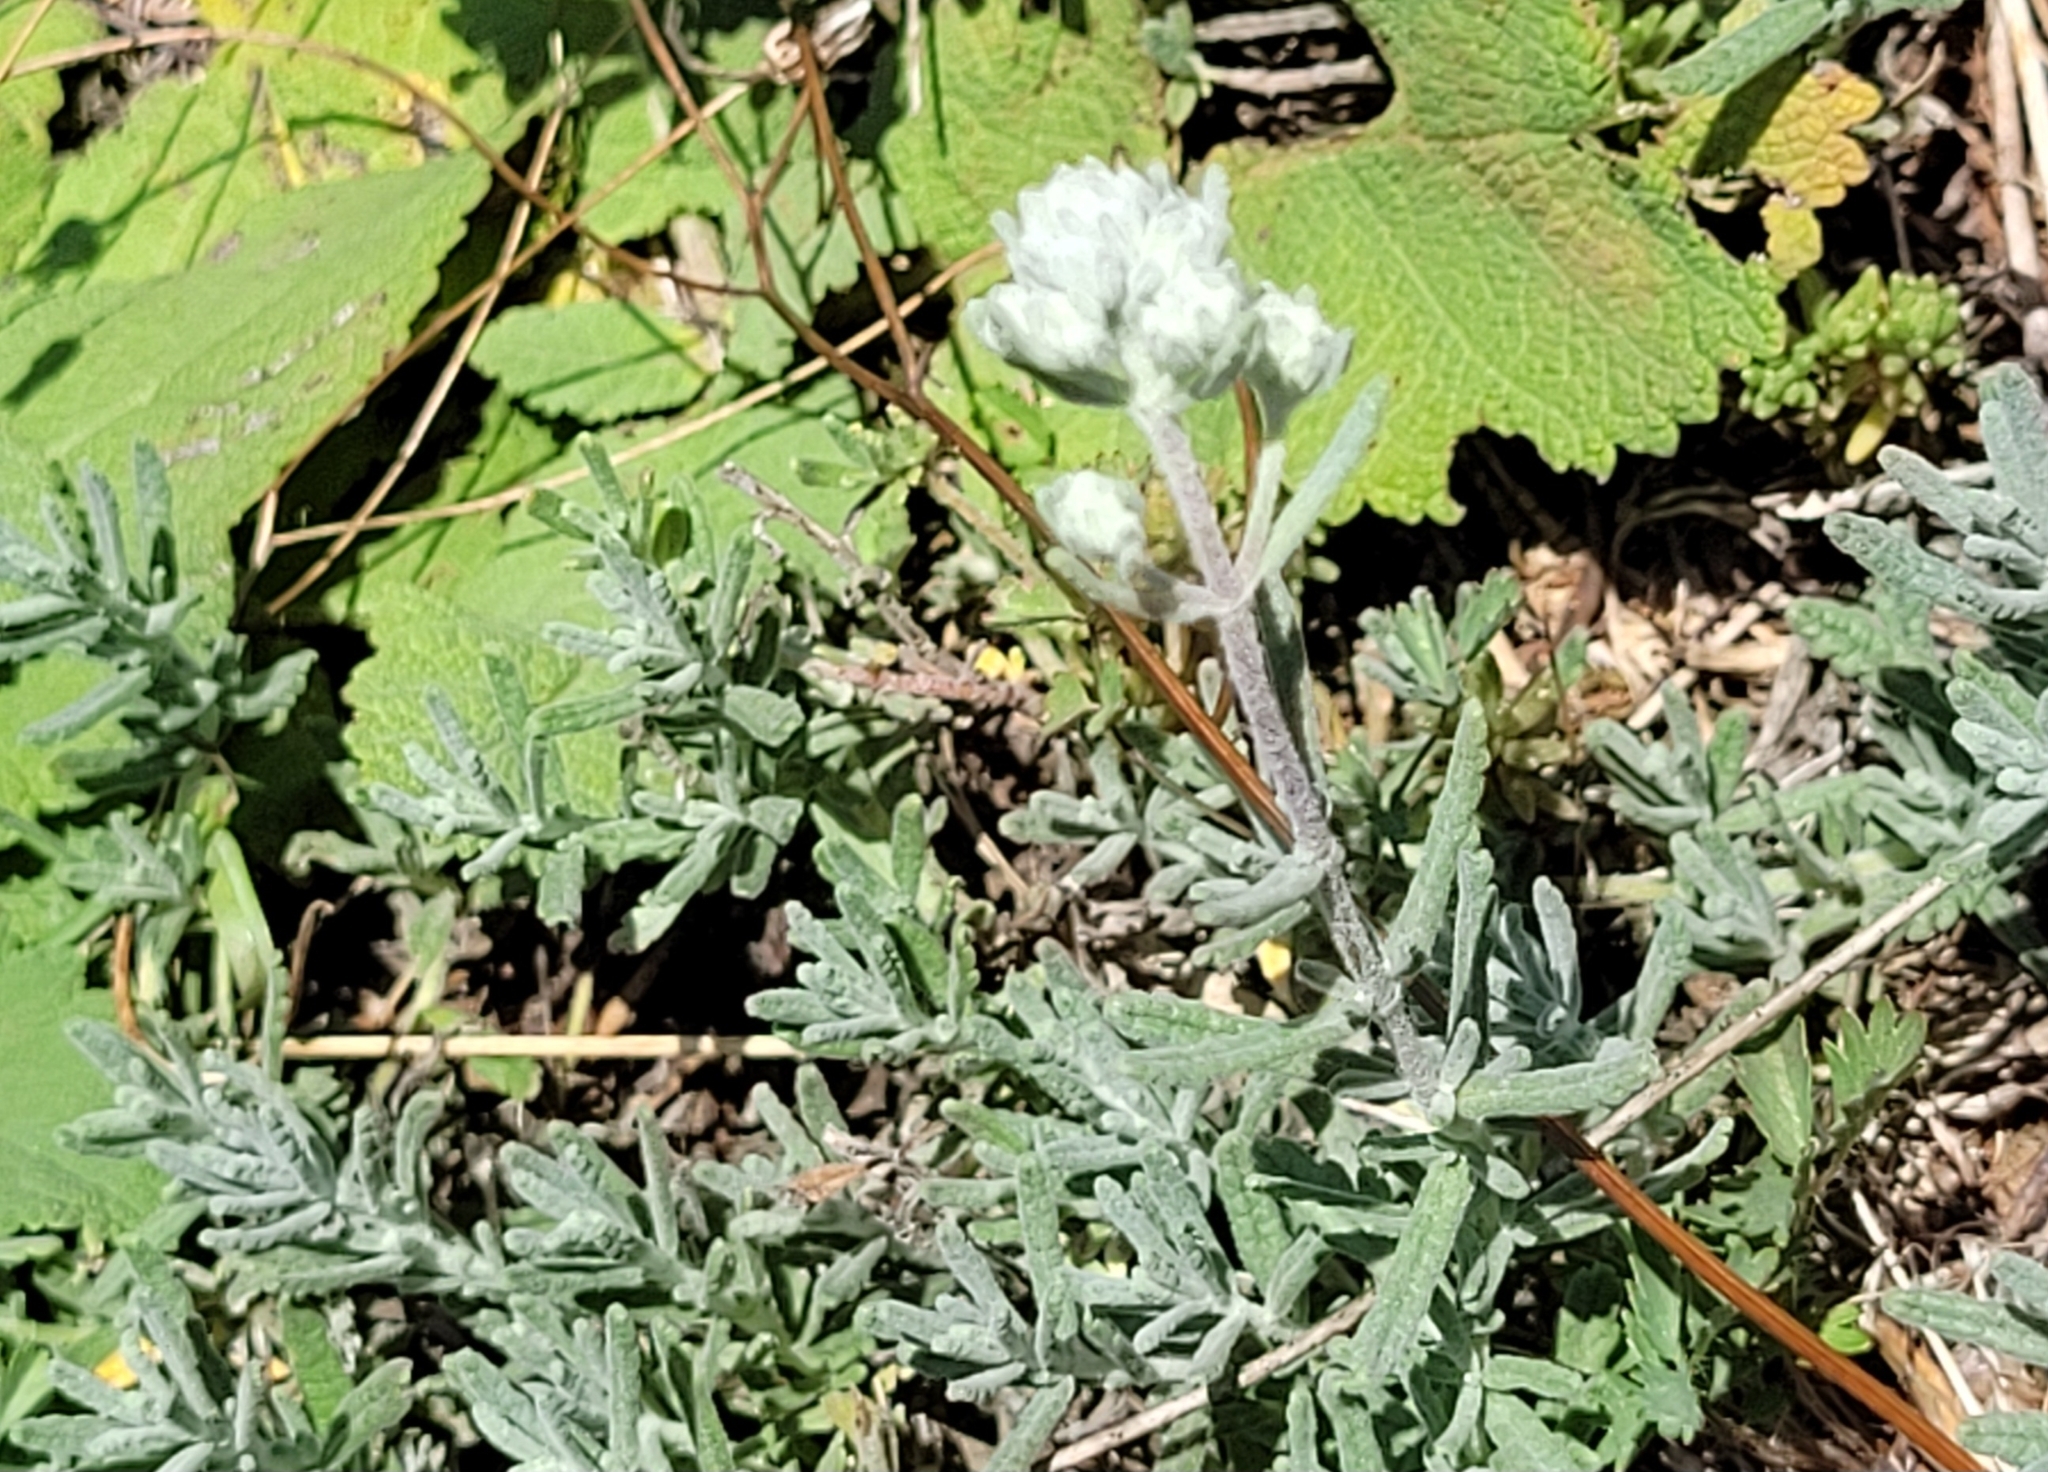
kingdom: Plantae
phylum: Tracheophyta
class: Magnoliopsida
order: Lamiales
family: Lamiaceae
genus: Teucrium
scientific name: Teucrium capitatum
